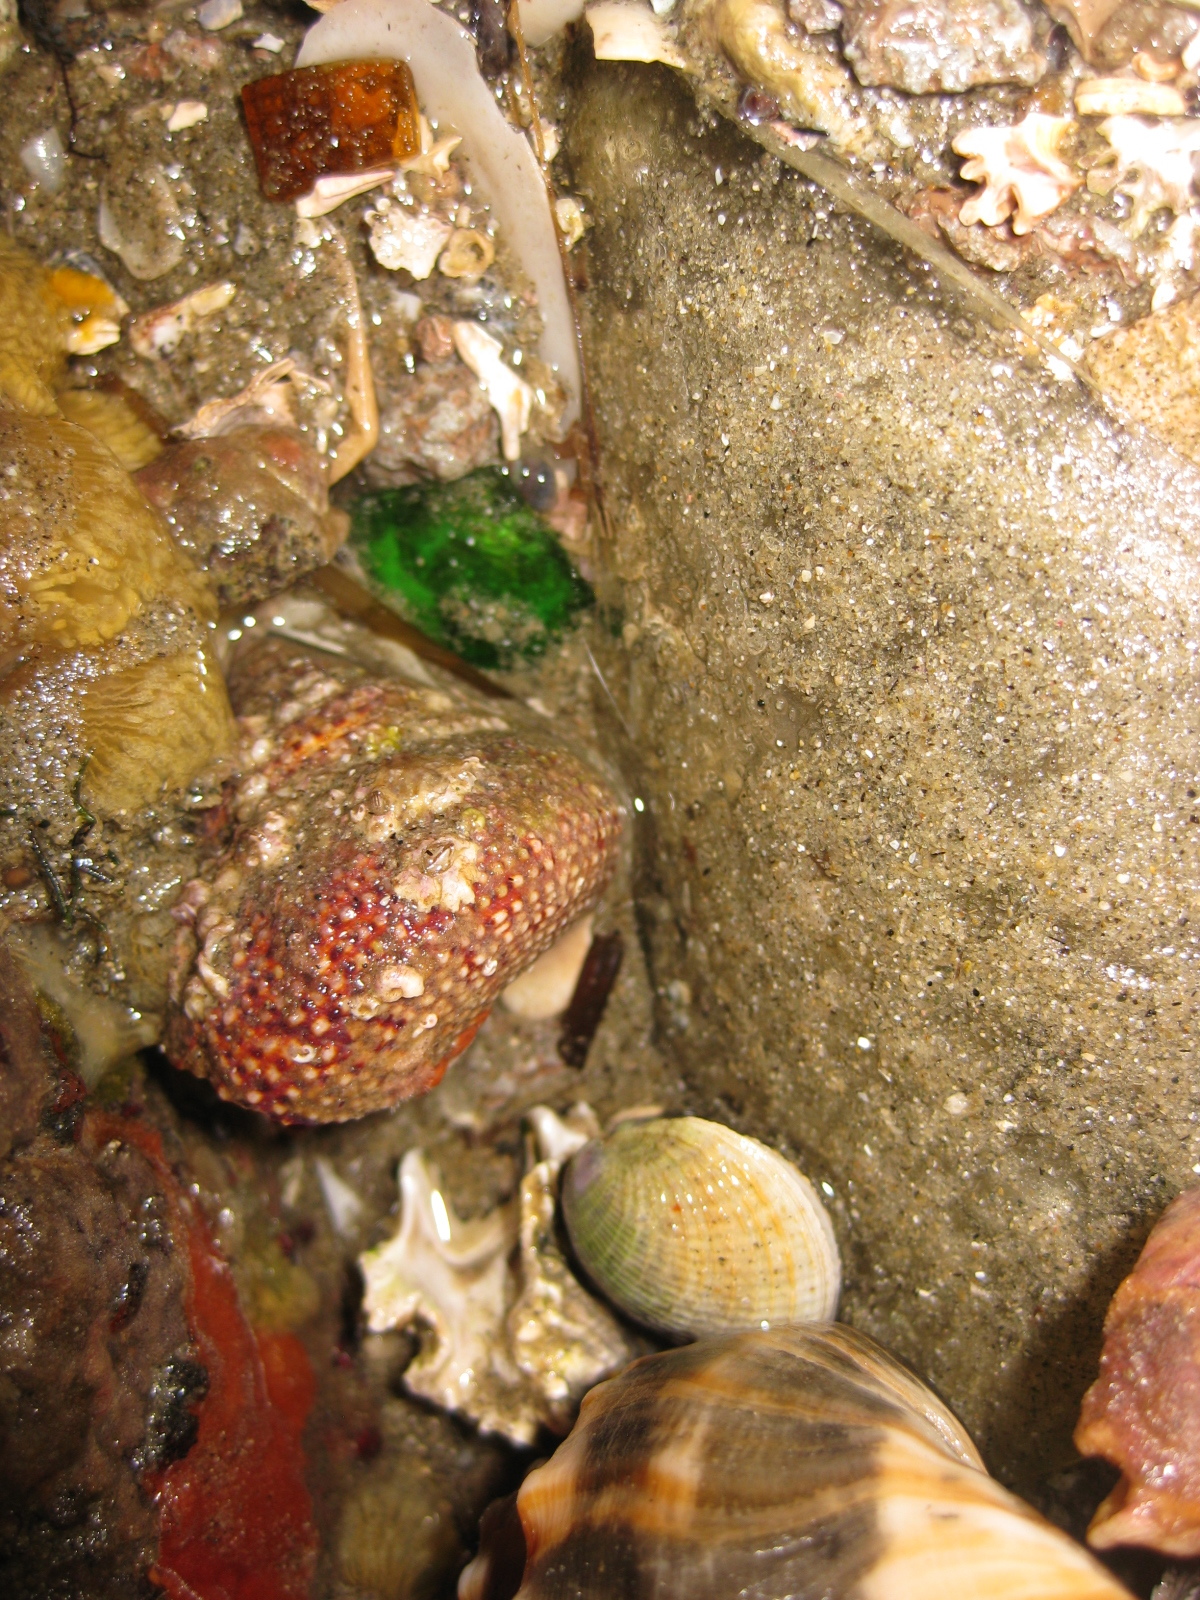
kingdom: Animalia
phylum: Arthropoda
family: Elminiidae
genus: Austrominius
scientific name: Austrominius modestus
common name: Australasian barnacle
